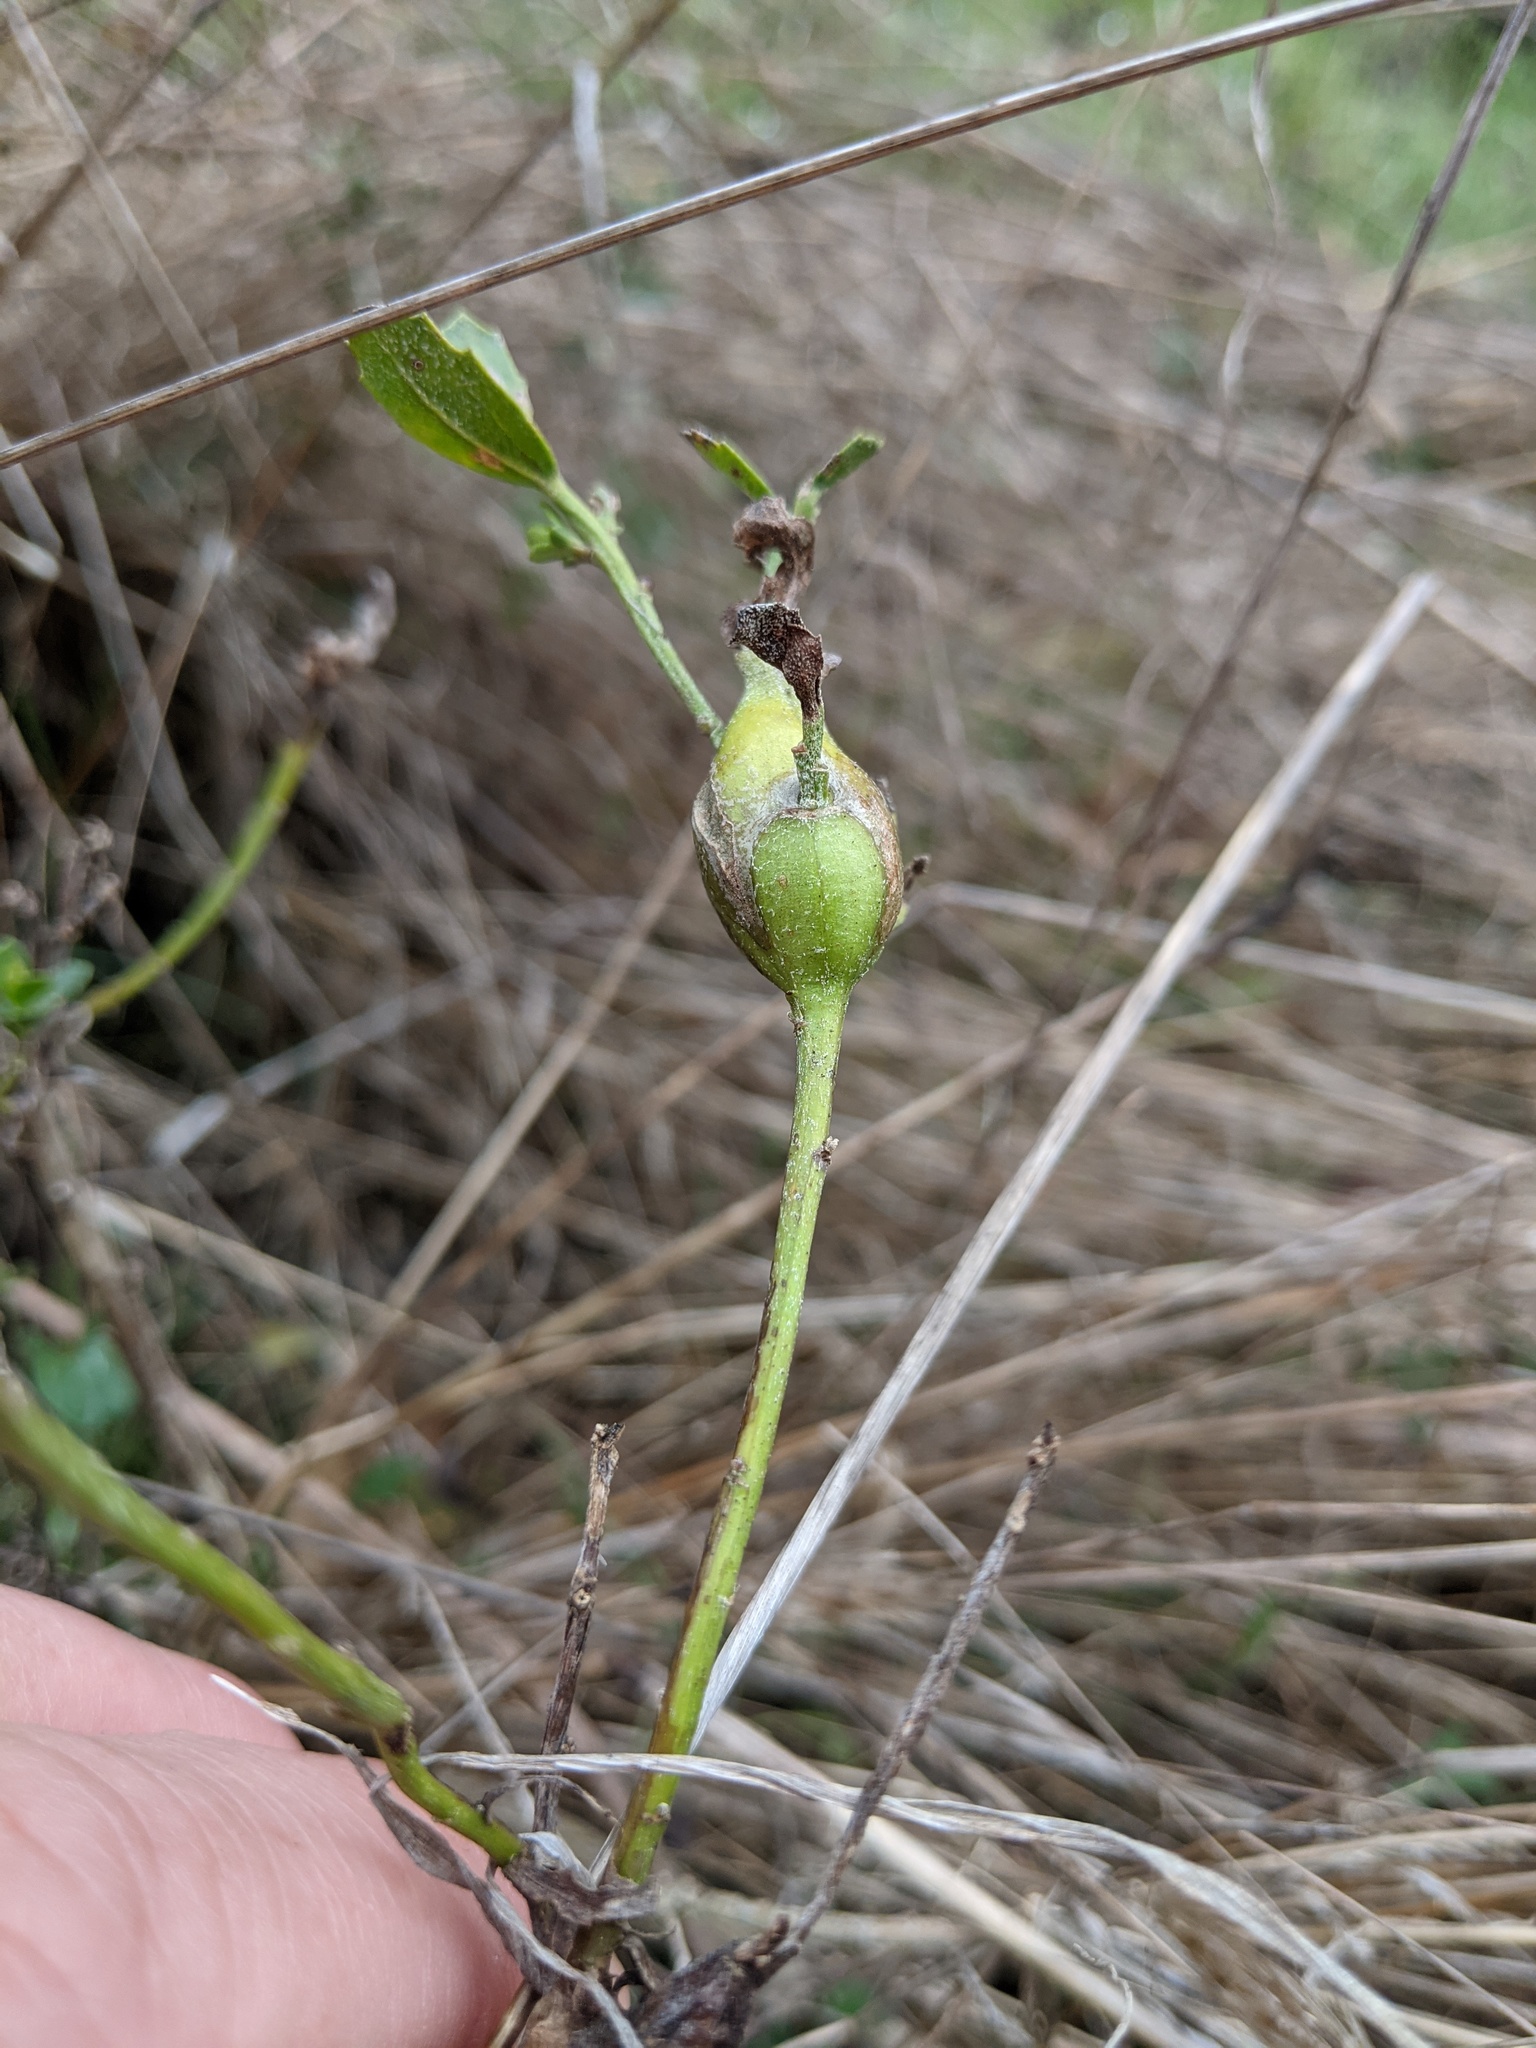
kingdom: Animalia
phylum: Arthropoda
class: Insecta
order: Lepidoptera
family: Gelechiidae
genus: Gnorimoschema
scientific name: Gnorimoschema baccharisella
